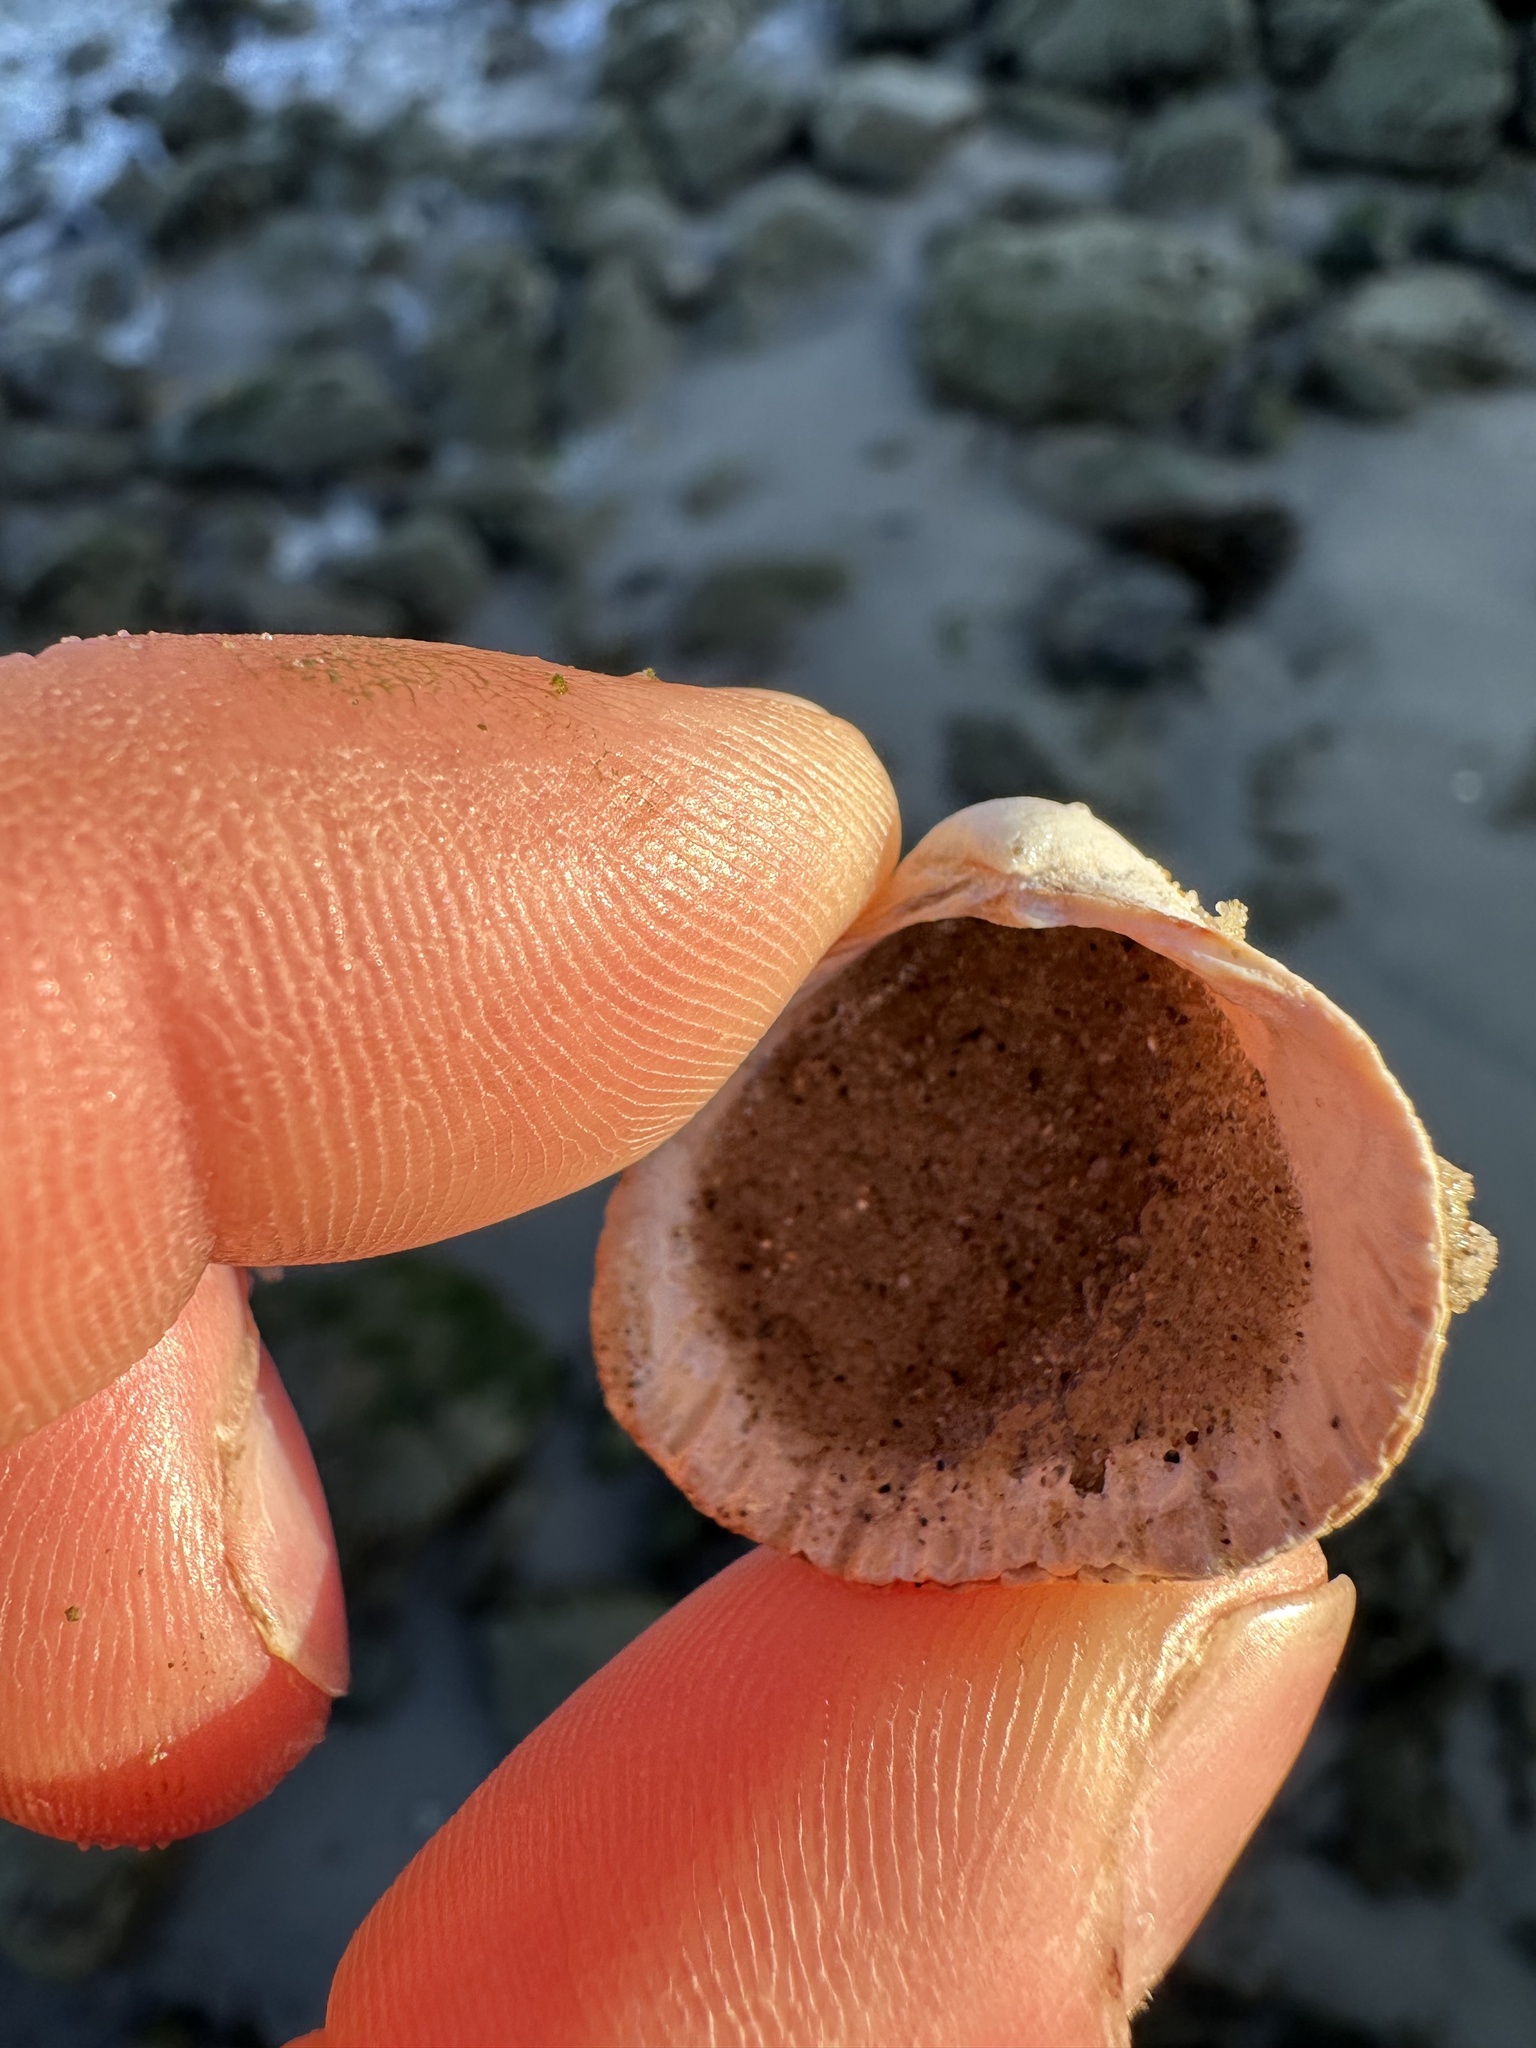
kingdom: Animalia
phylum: Mollusca
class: Bivalvia
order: Cardiida
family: Cardiidae
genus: Cerastoderma
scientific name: Cerastoderma edule
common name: Common cockle
